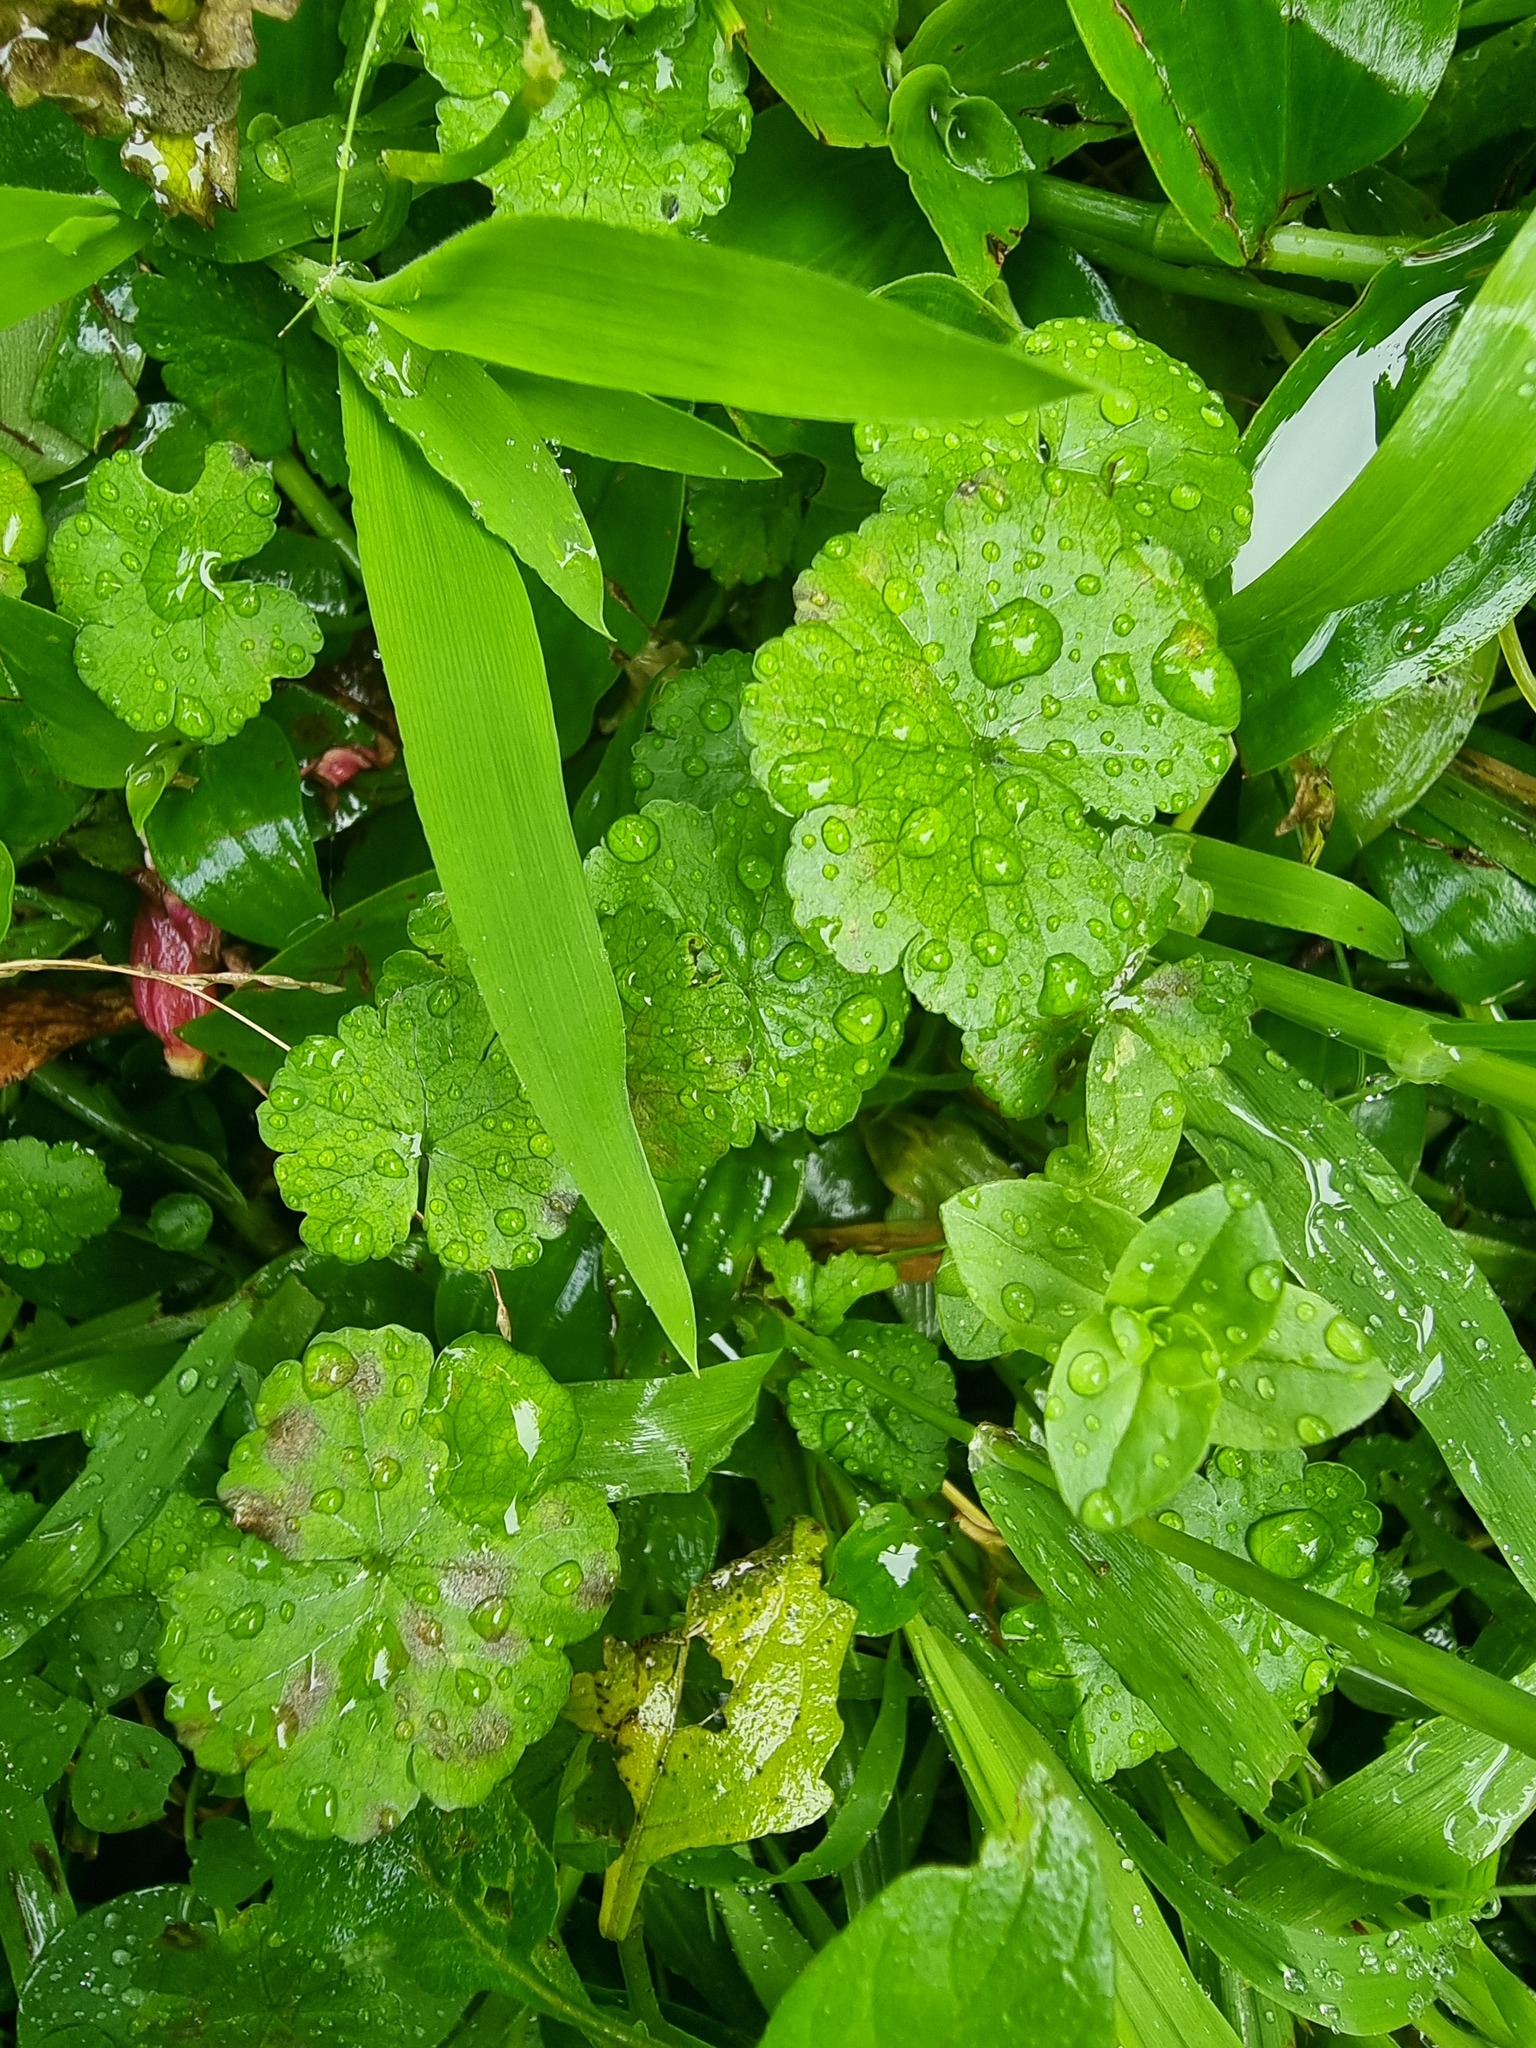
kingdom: Plantae
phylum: Tracheophyta
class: Magnoliopsida
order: Apiales
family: Araliaceae
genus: Hydrocotyle
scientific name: Hydrocotyle heteromeria
